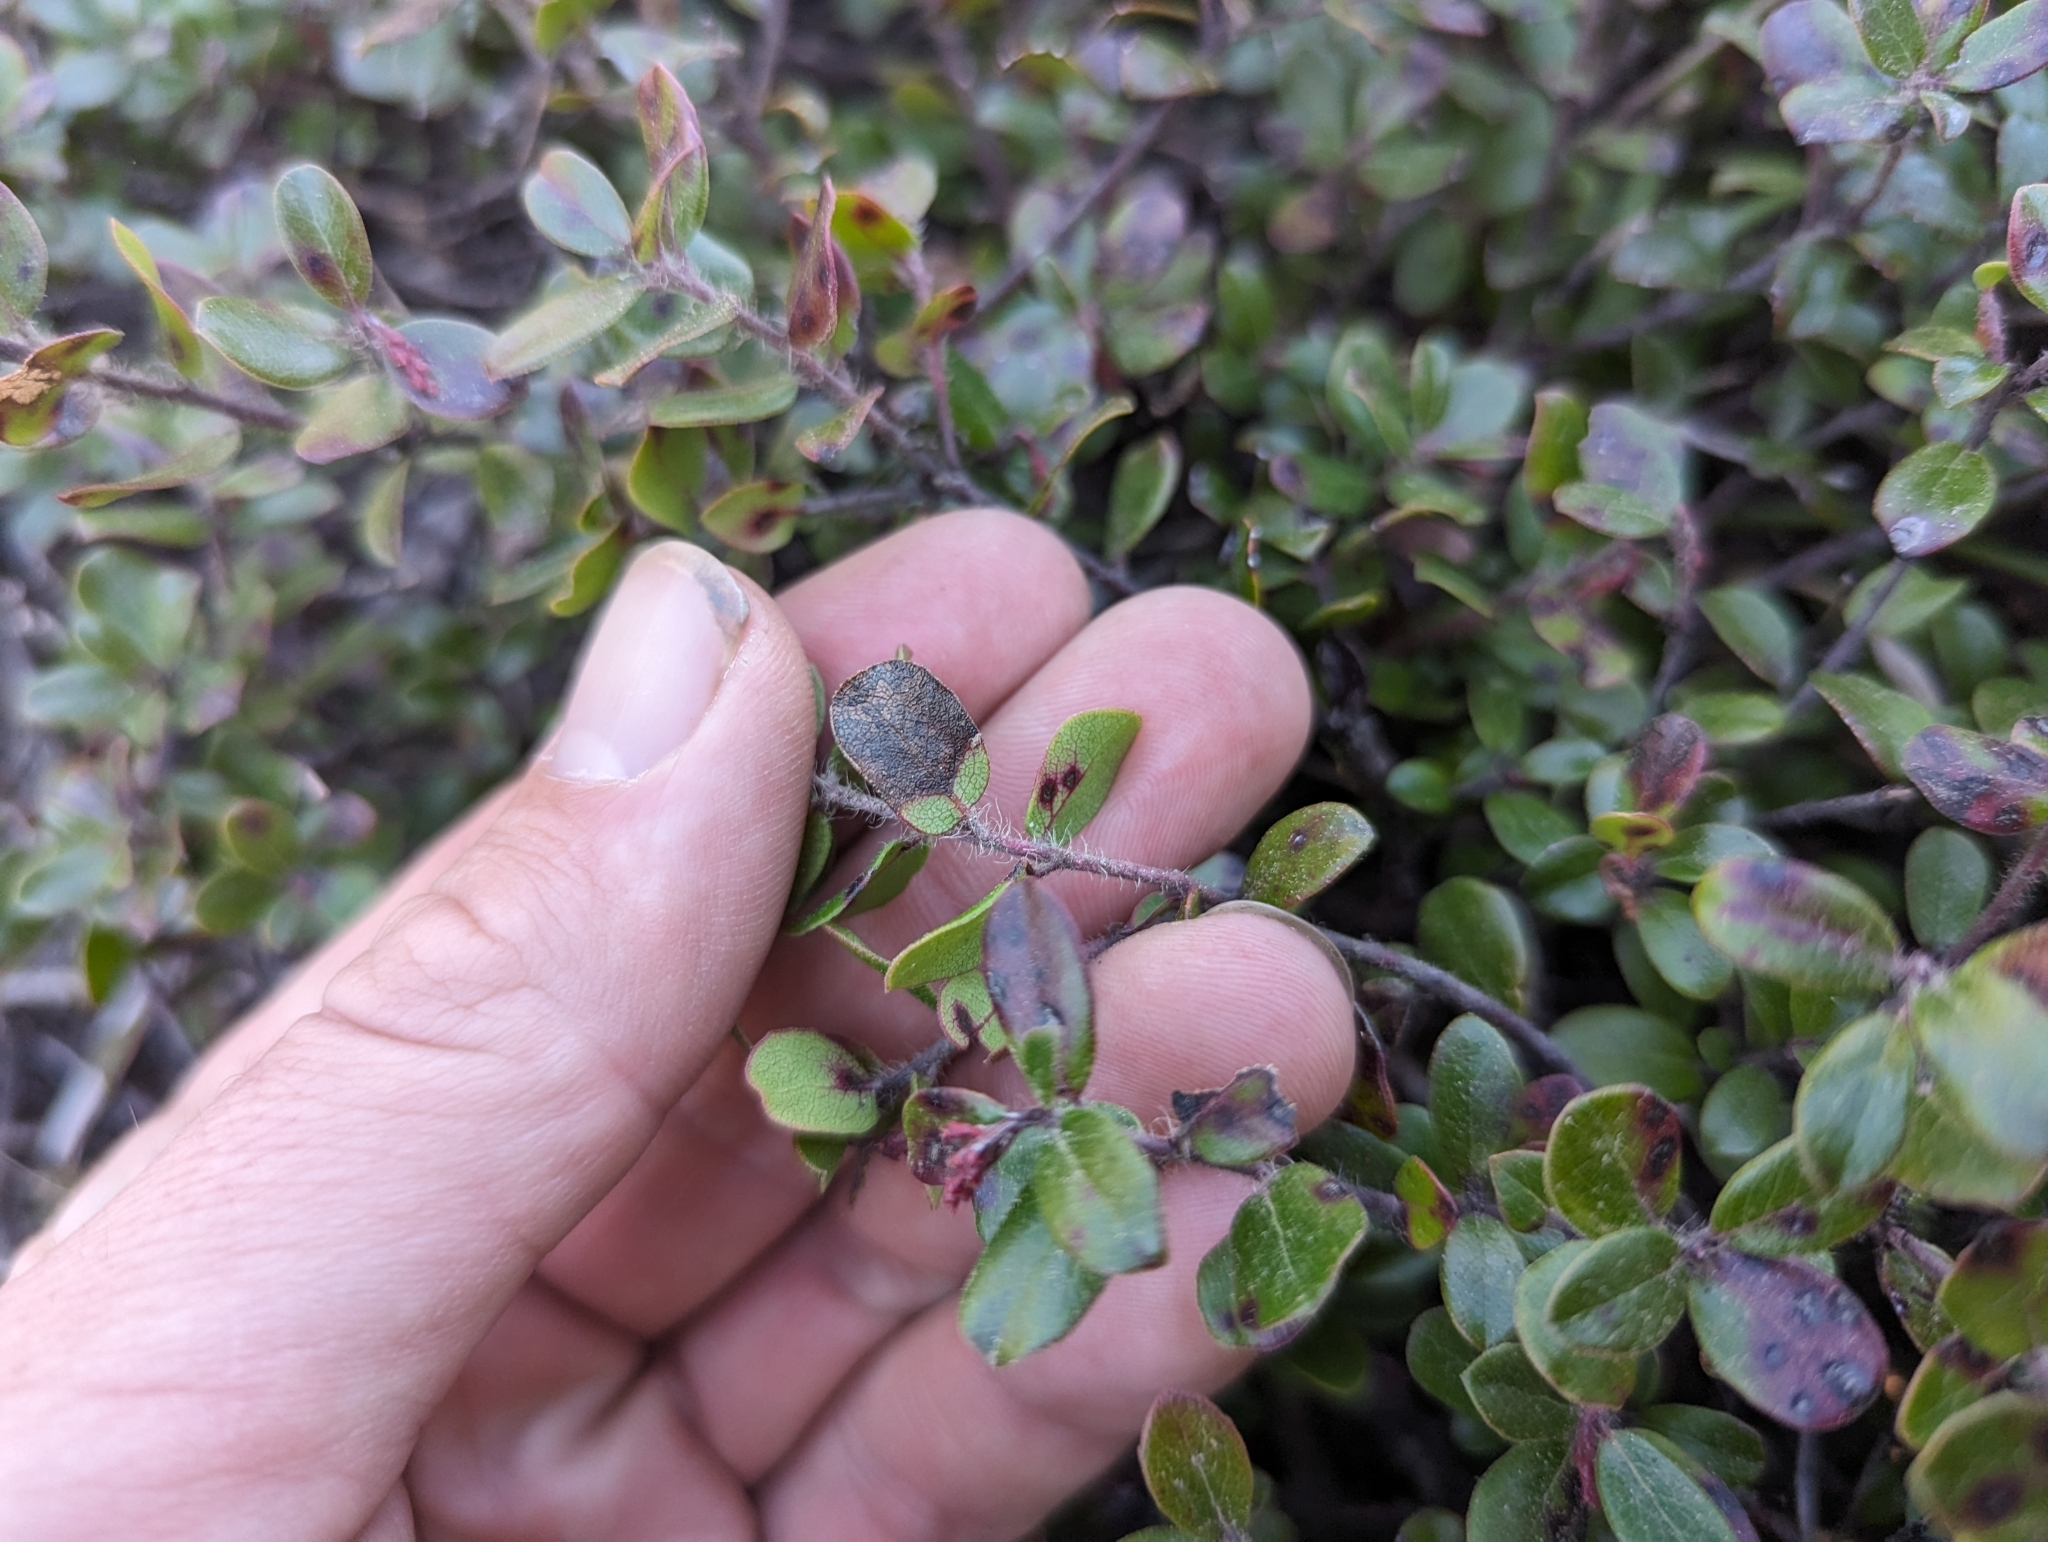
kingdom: Plantae
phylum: Tracheophyta
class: Magnoliopsida
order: Ericales
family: Ericaceae
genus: Arctostaphylos
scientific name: Arctostaphylos nummularia
